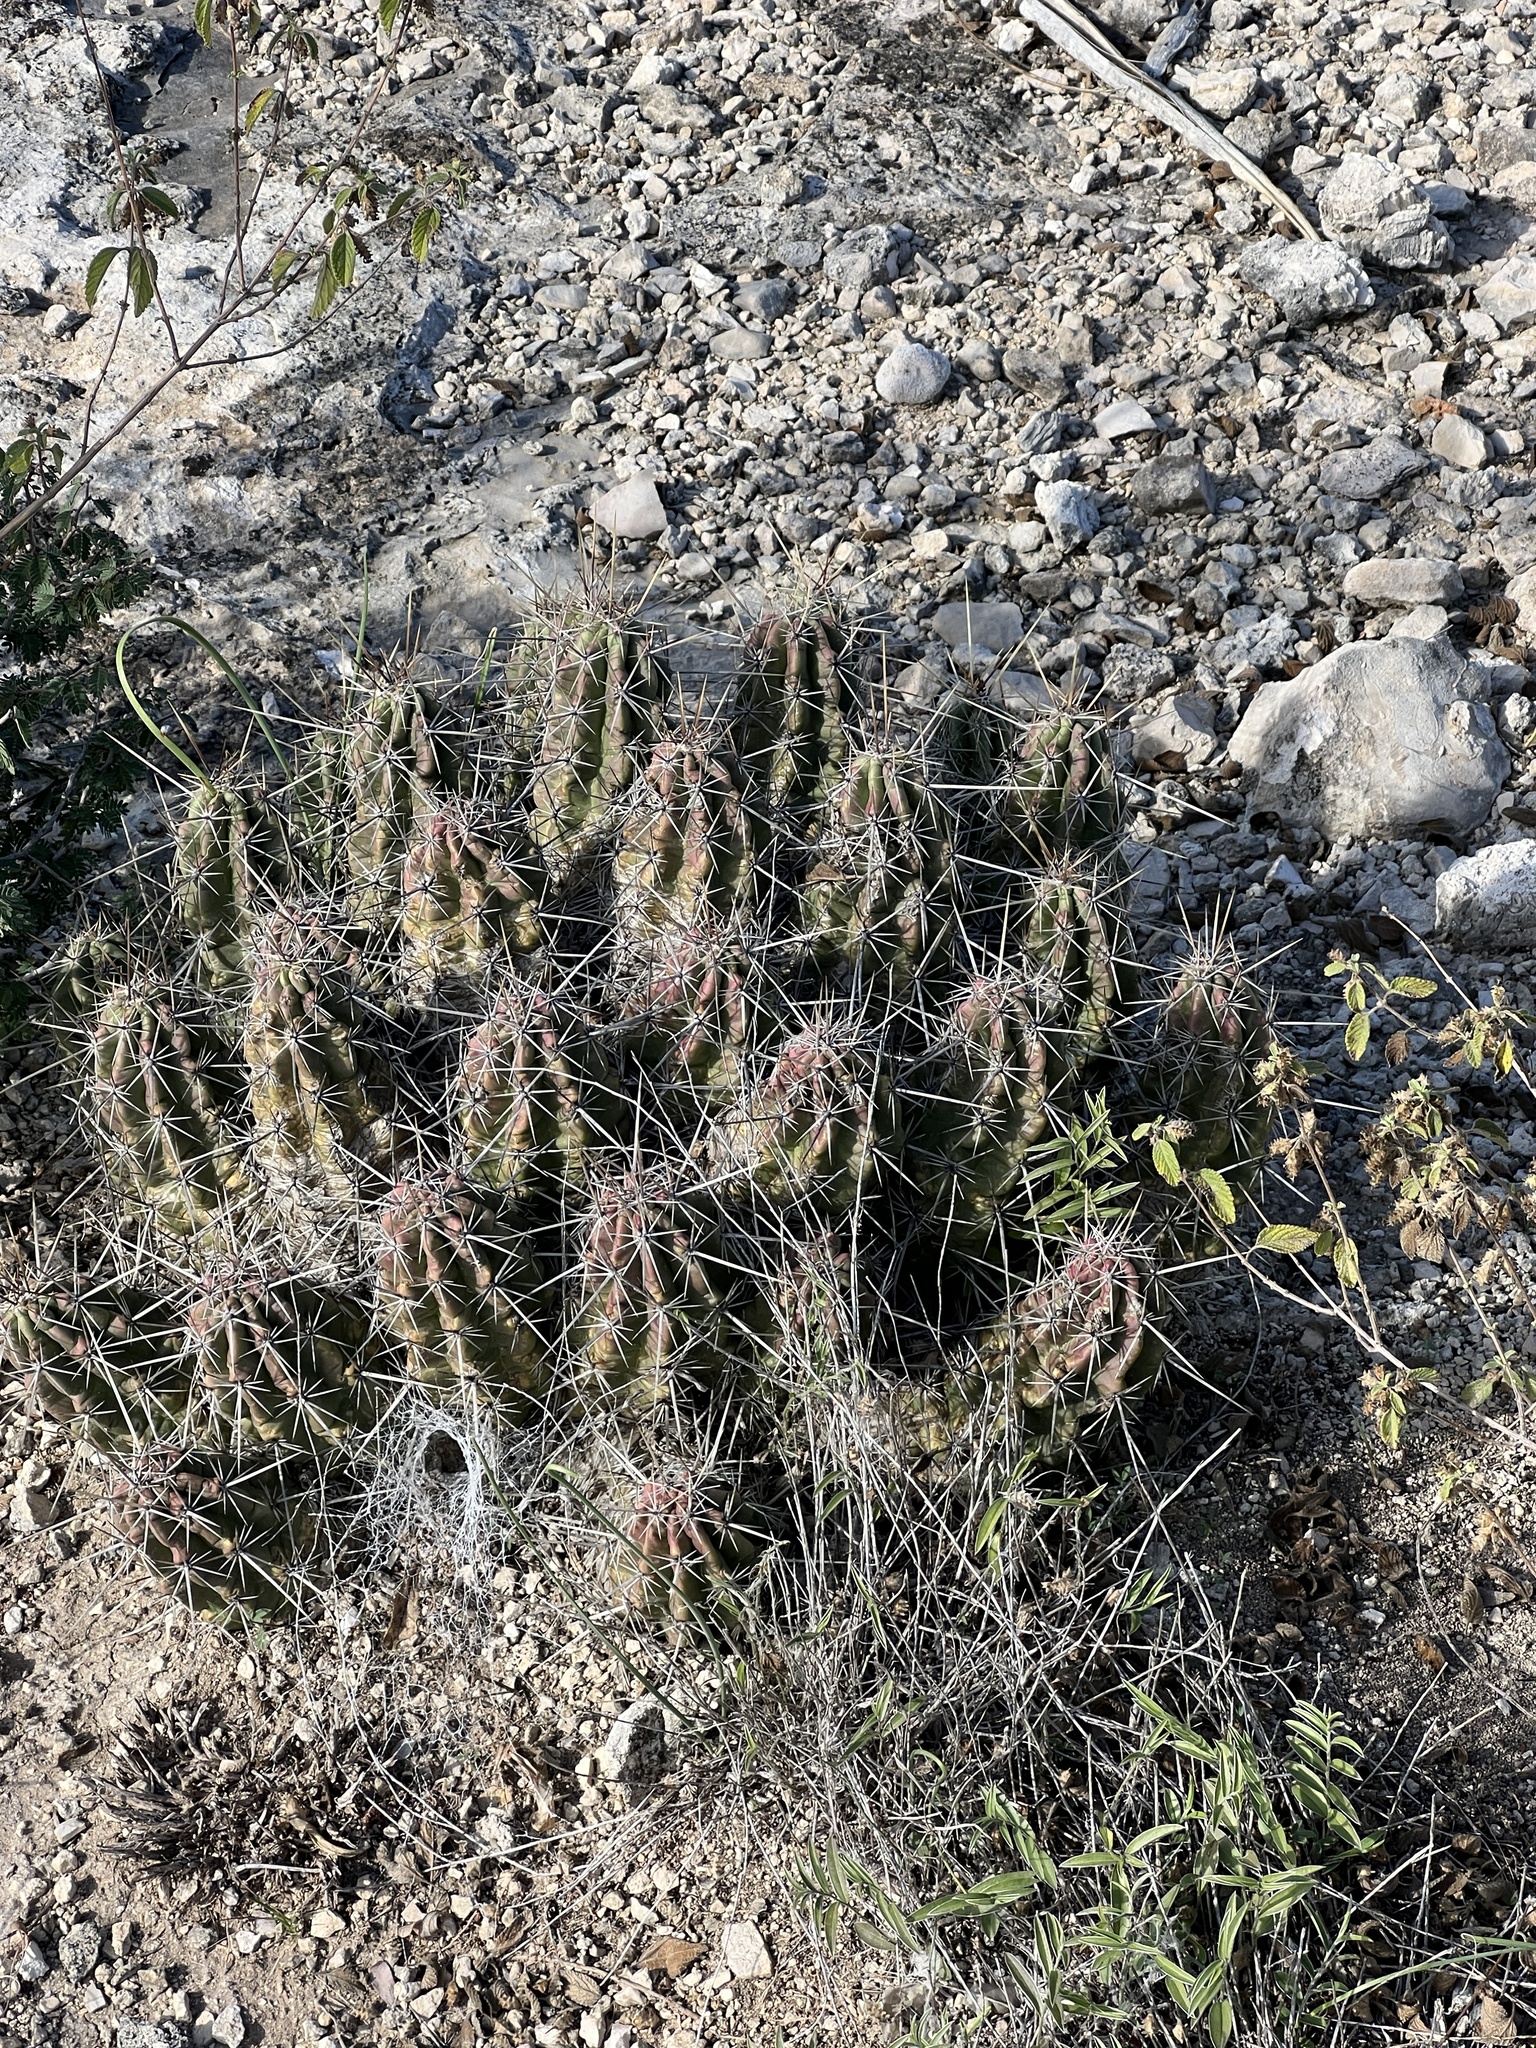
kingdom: Plantae
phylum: Tracheophyta
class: Magnoliopsida
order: Caryophyllales
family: Cactaceae
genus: Echinocereus
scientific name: Echinocereus enneacanthus
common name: Pitaya
